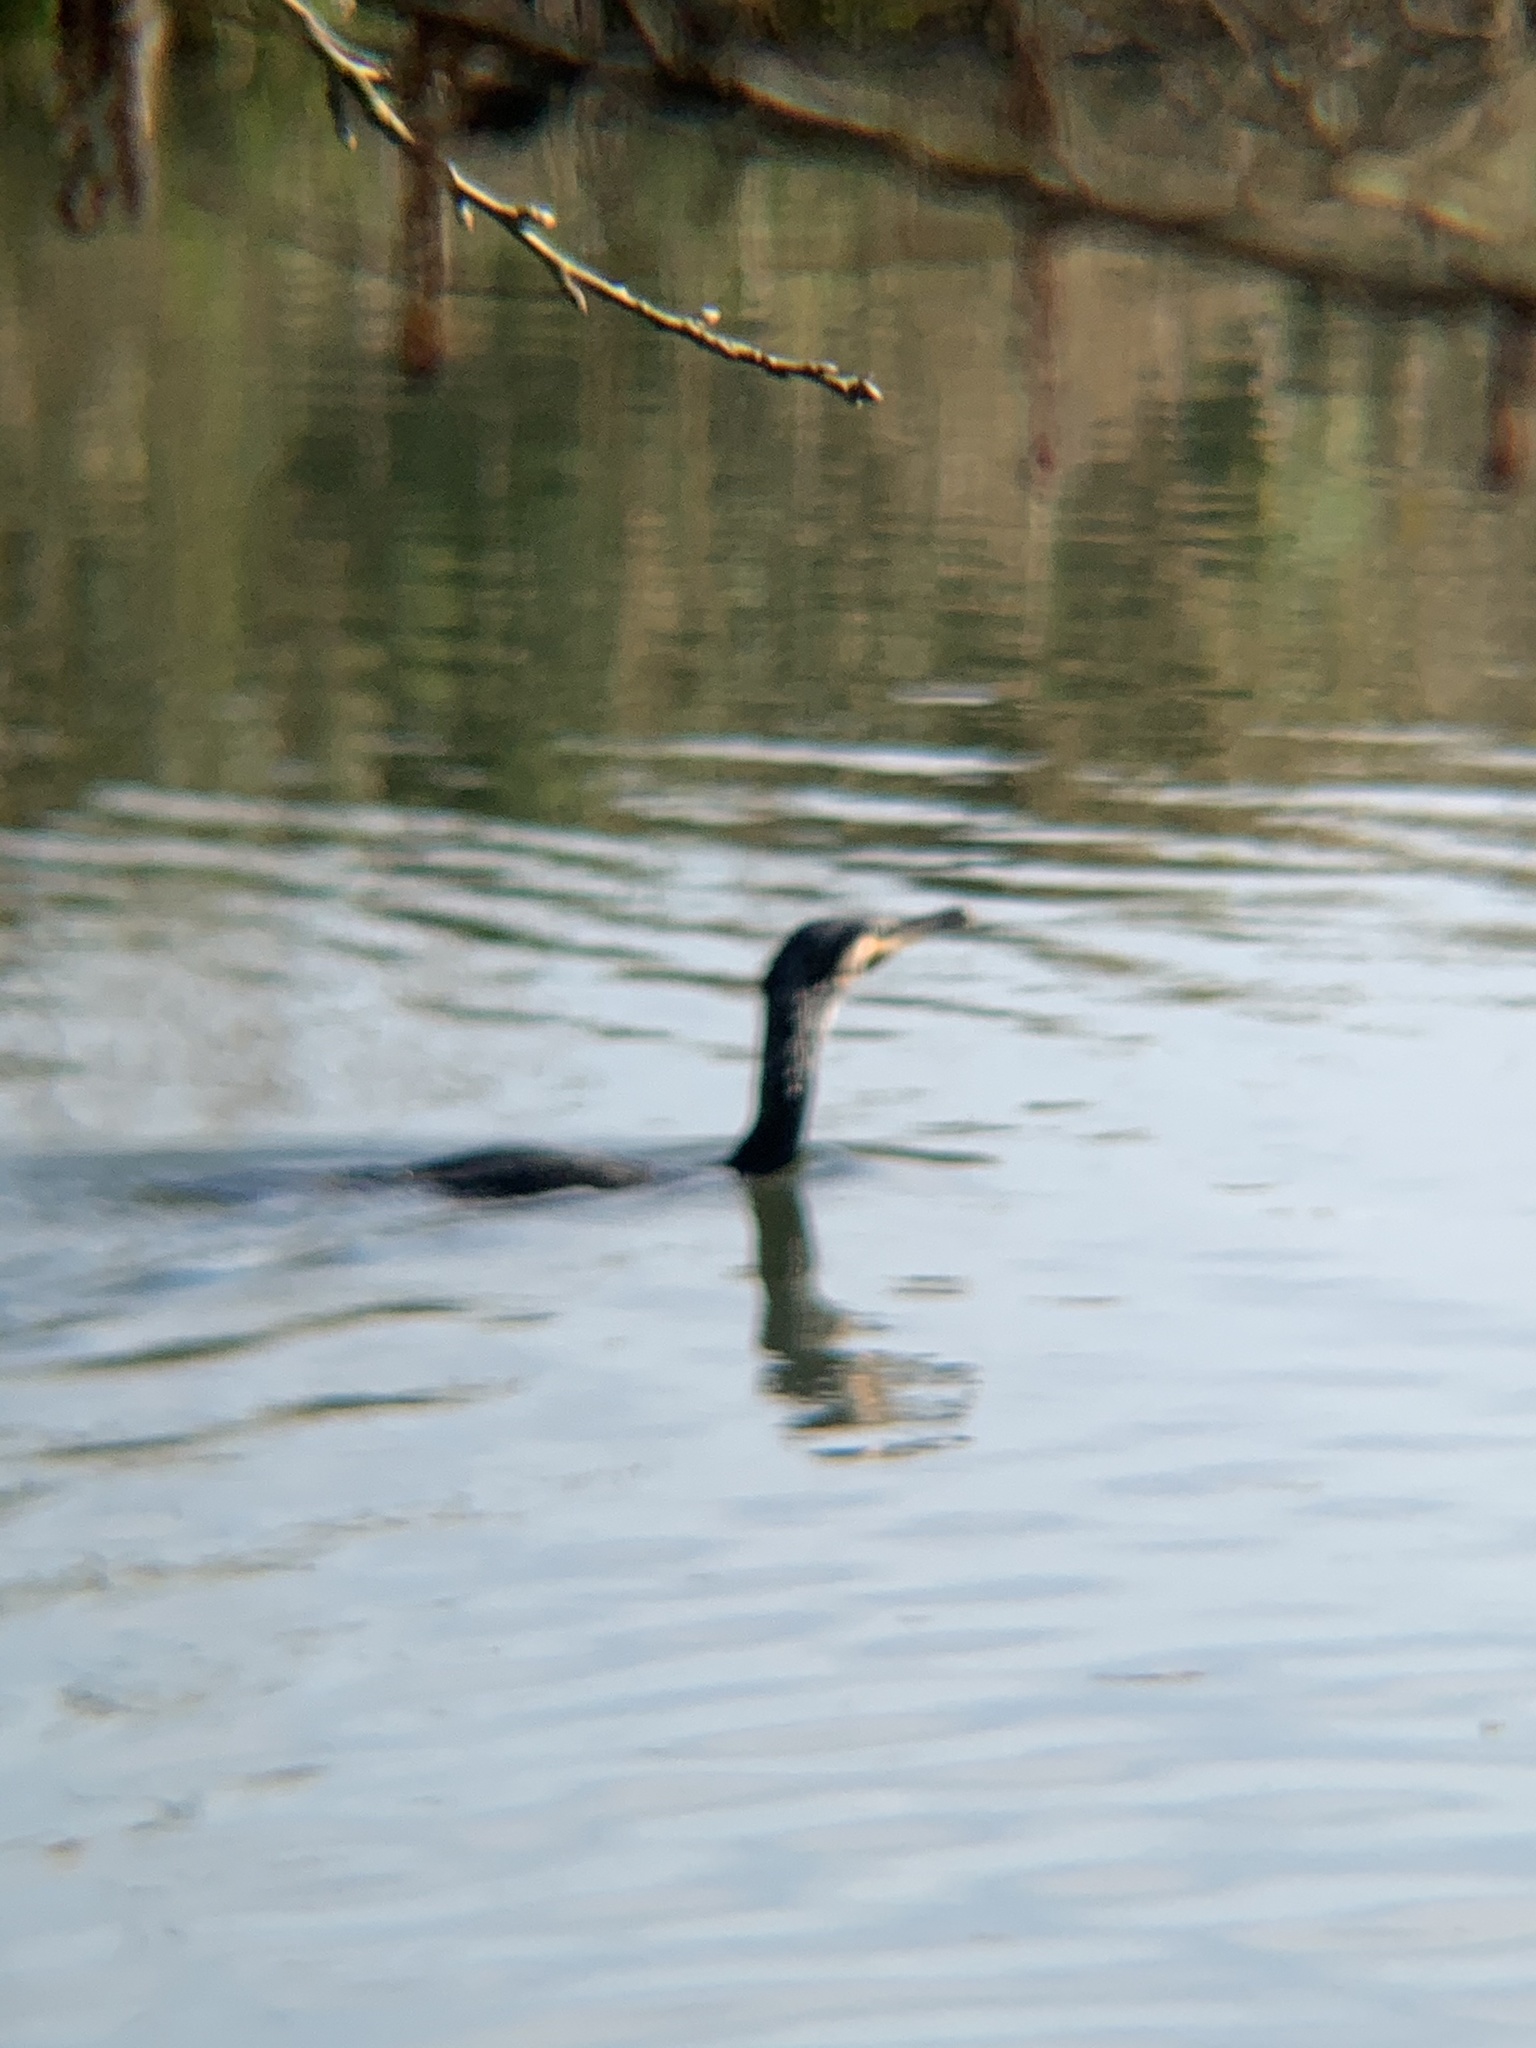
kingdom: Animalia
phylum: Chordata
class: Aves
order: Suliformes
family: Phalacrocoracidae
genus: Phalacrocorax
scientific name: Phalacrocorax carbo
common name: Great cormorant
